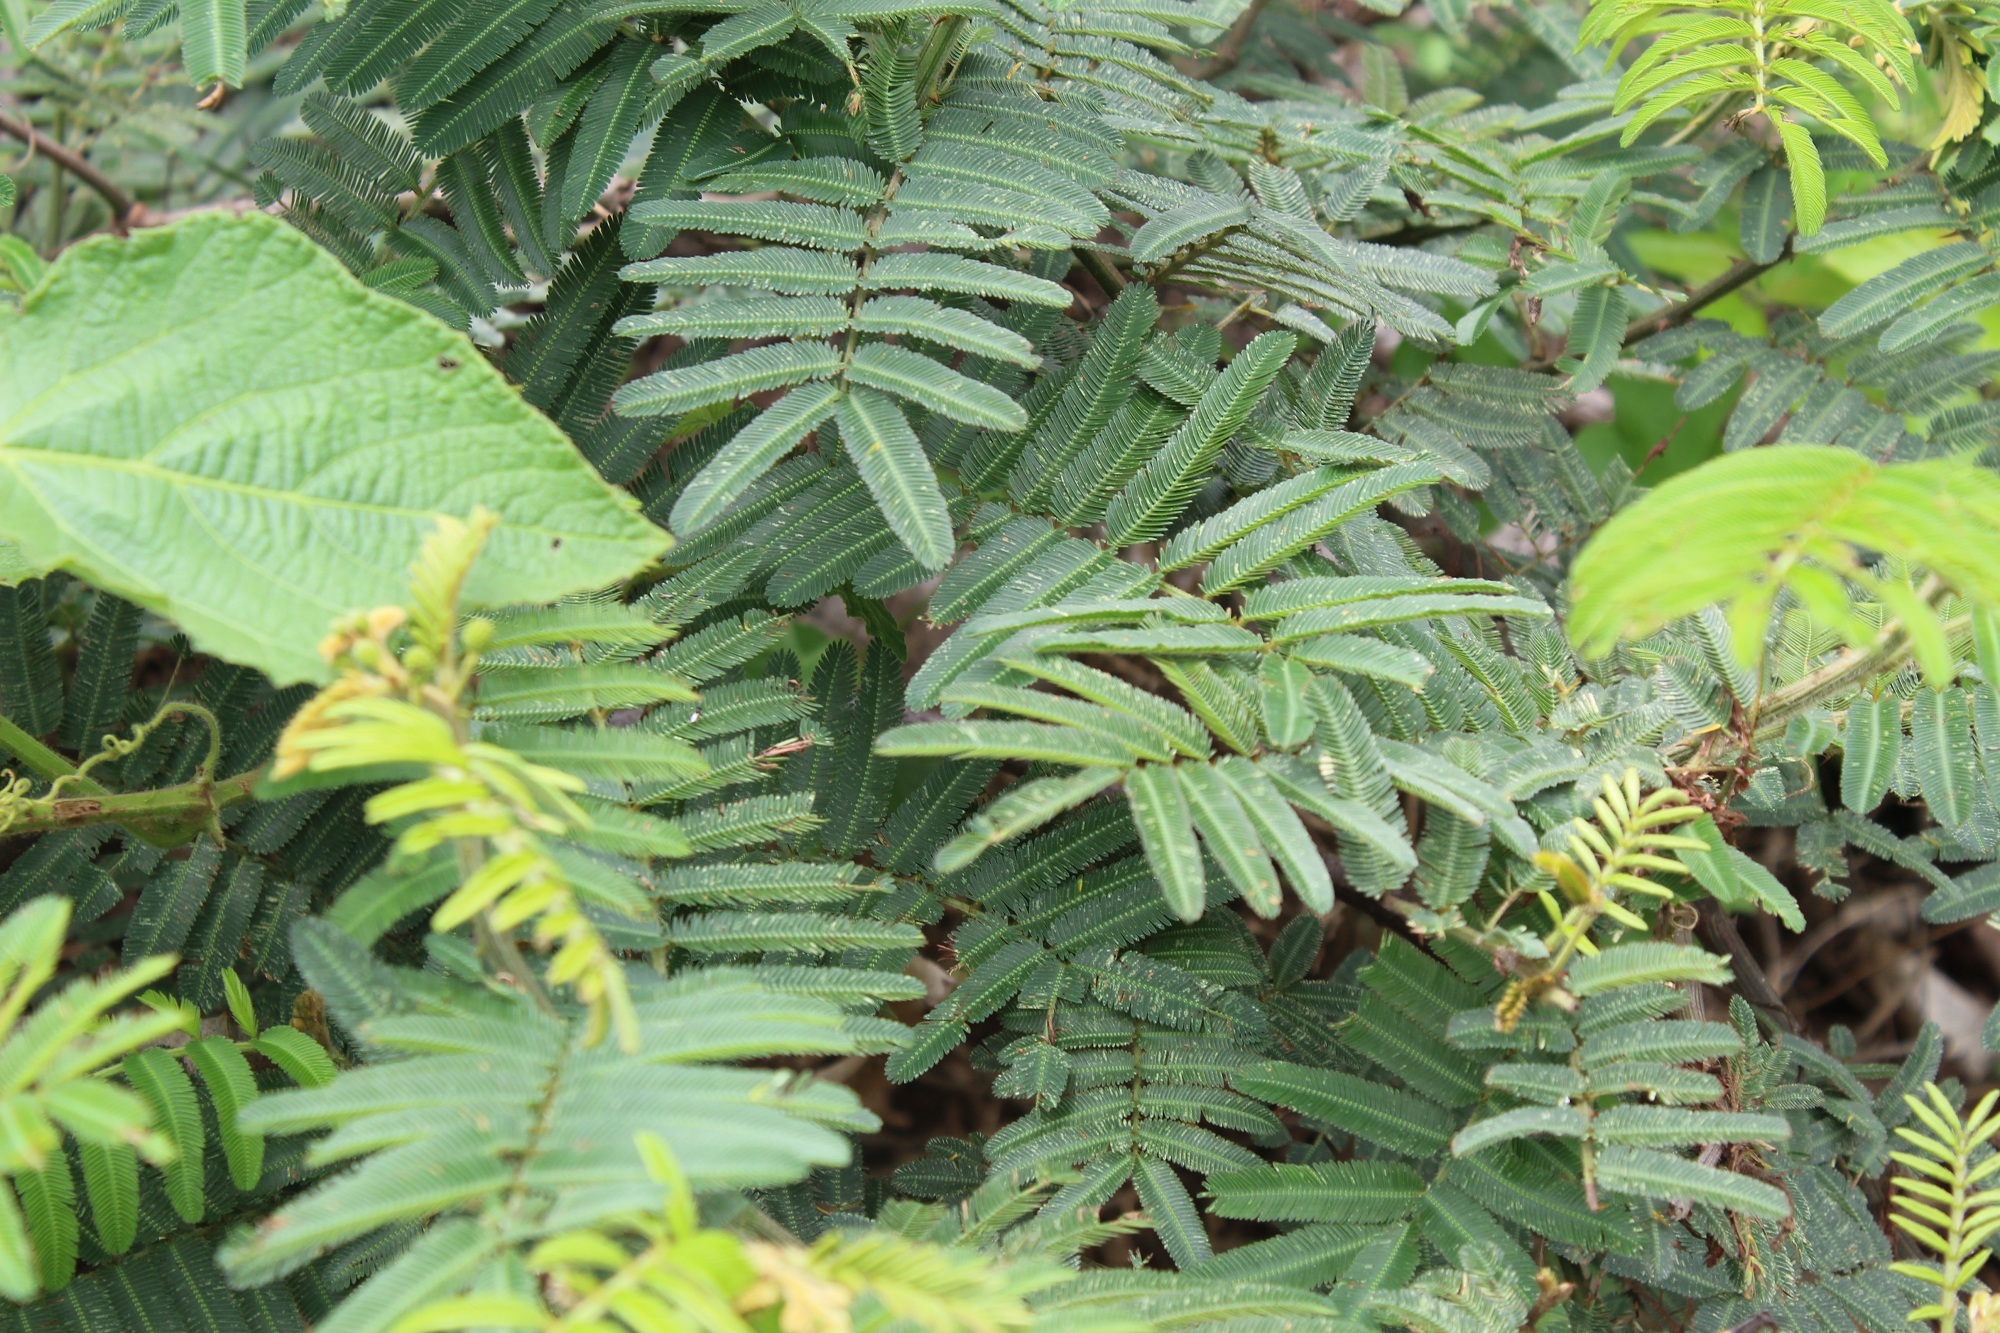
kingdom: Plantae
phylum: Tracheophyta
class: Magnoliopsida
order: Fabales
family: Fabaceae
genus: Mimosa
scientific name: Mimosa pigra
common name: Black mimosa
